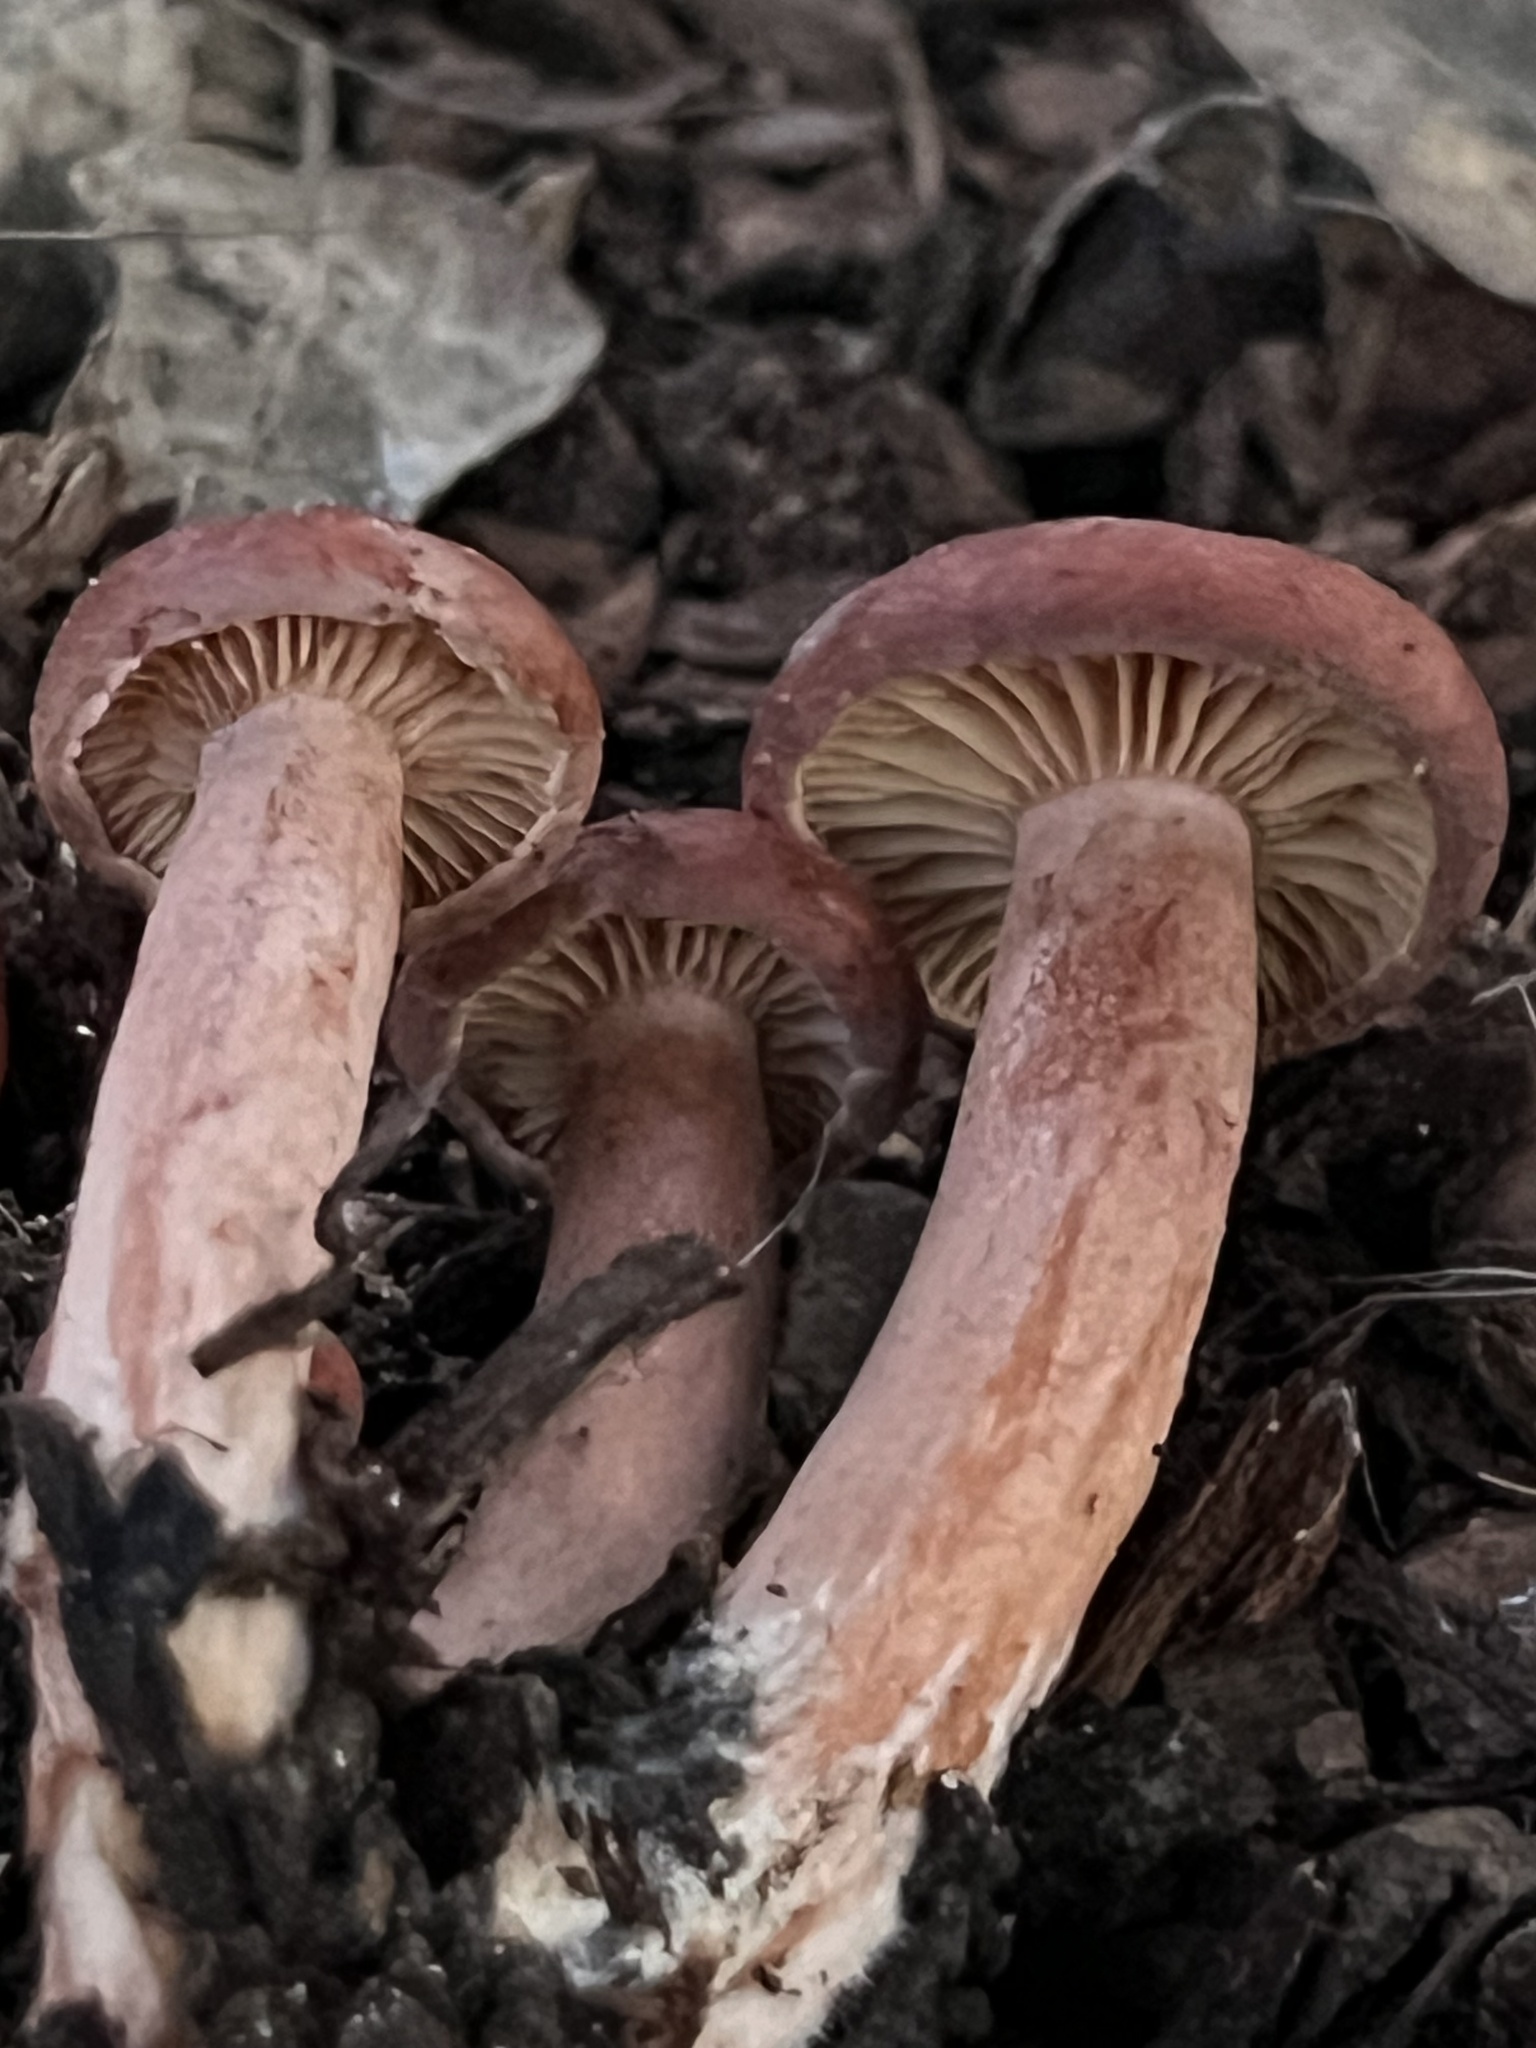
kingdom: Fungi
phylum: Basidiomycota
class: Agaricomycetes
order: Russulales
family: Russulaceae
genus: Lactarius
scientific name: Lactarius rufulus
